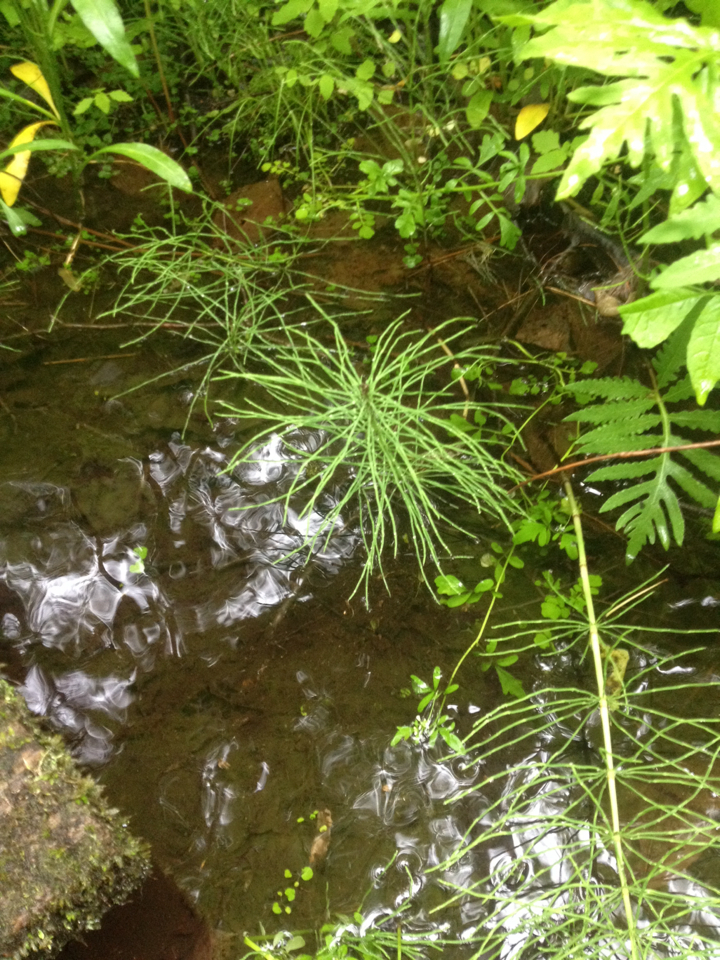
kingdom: Plantae
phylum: Tracheophyta
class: Polypodiopsida
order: Equisetales
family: Equisetaceae
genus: Equisetum
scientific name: Equisetum palustre
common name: Marsh horsetail
